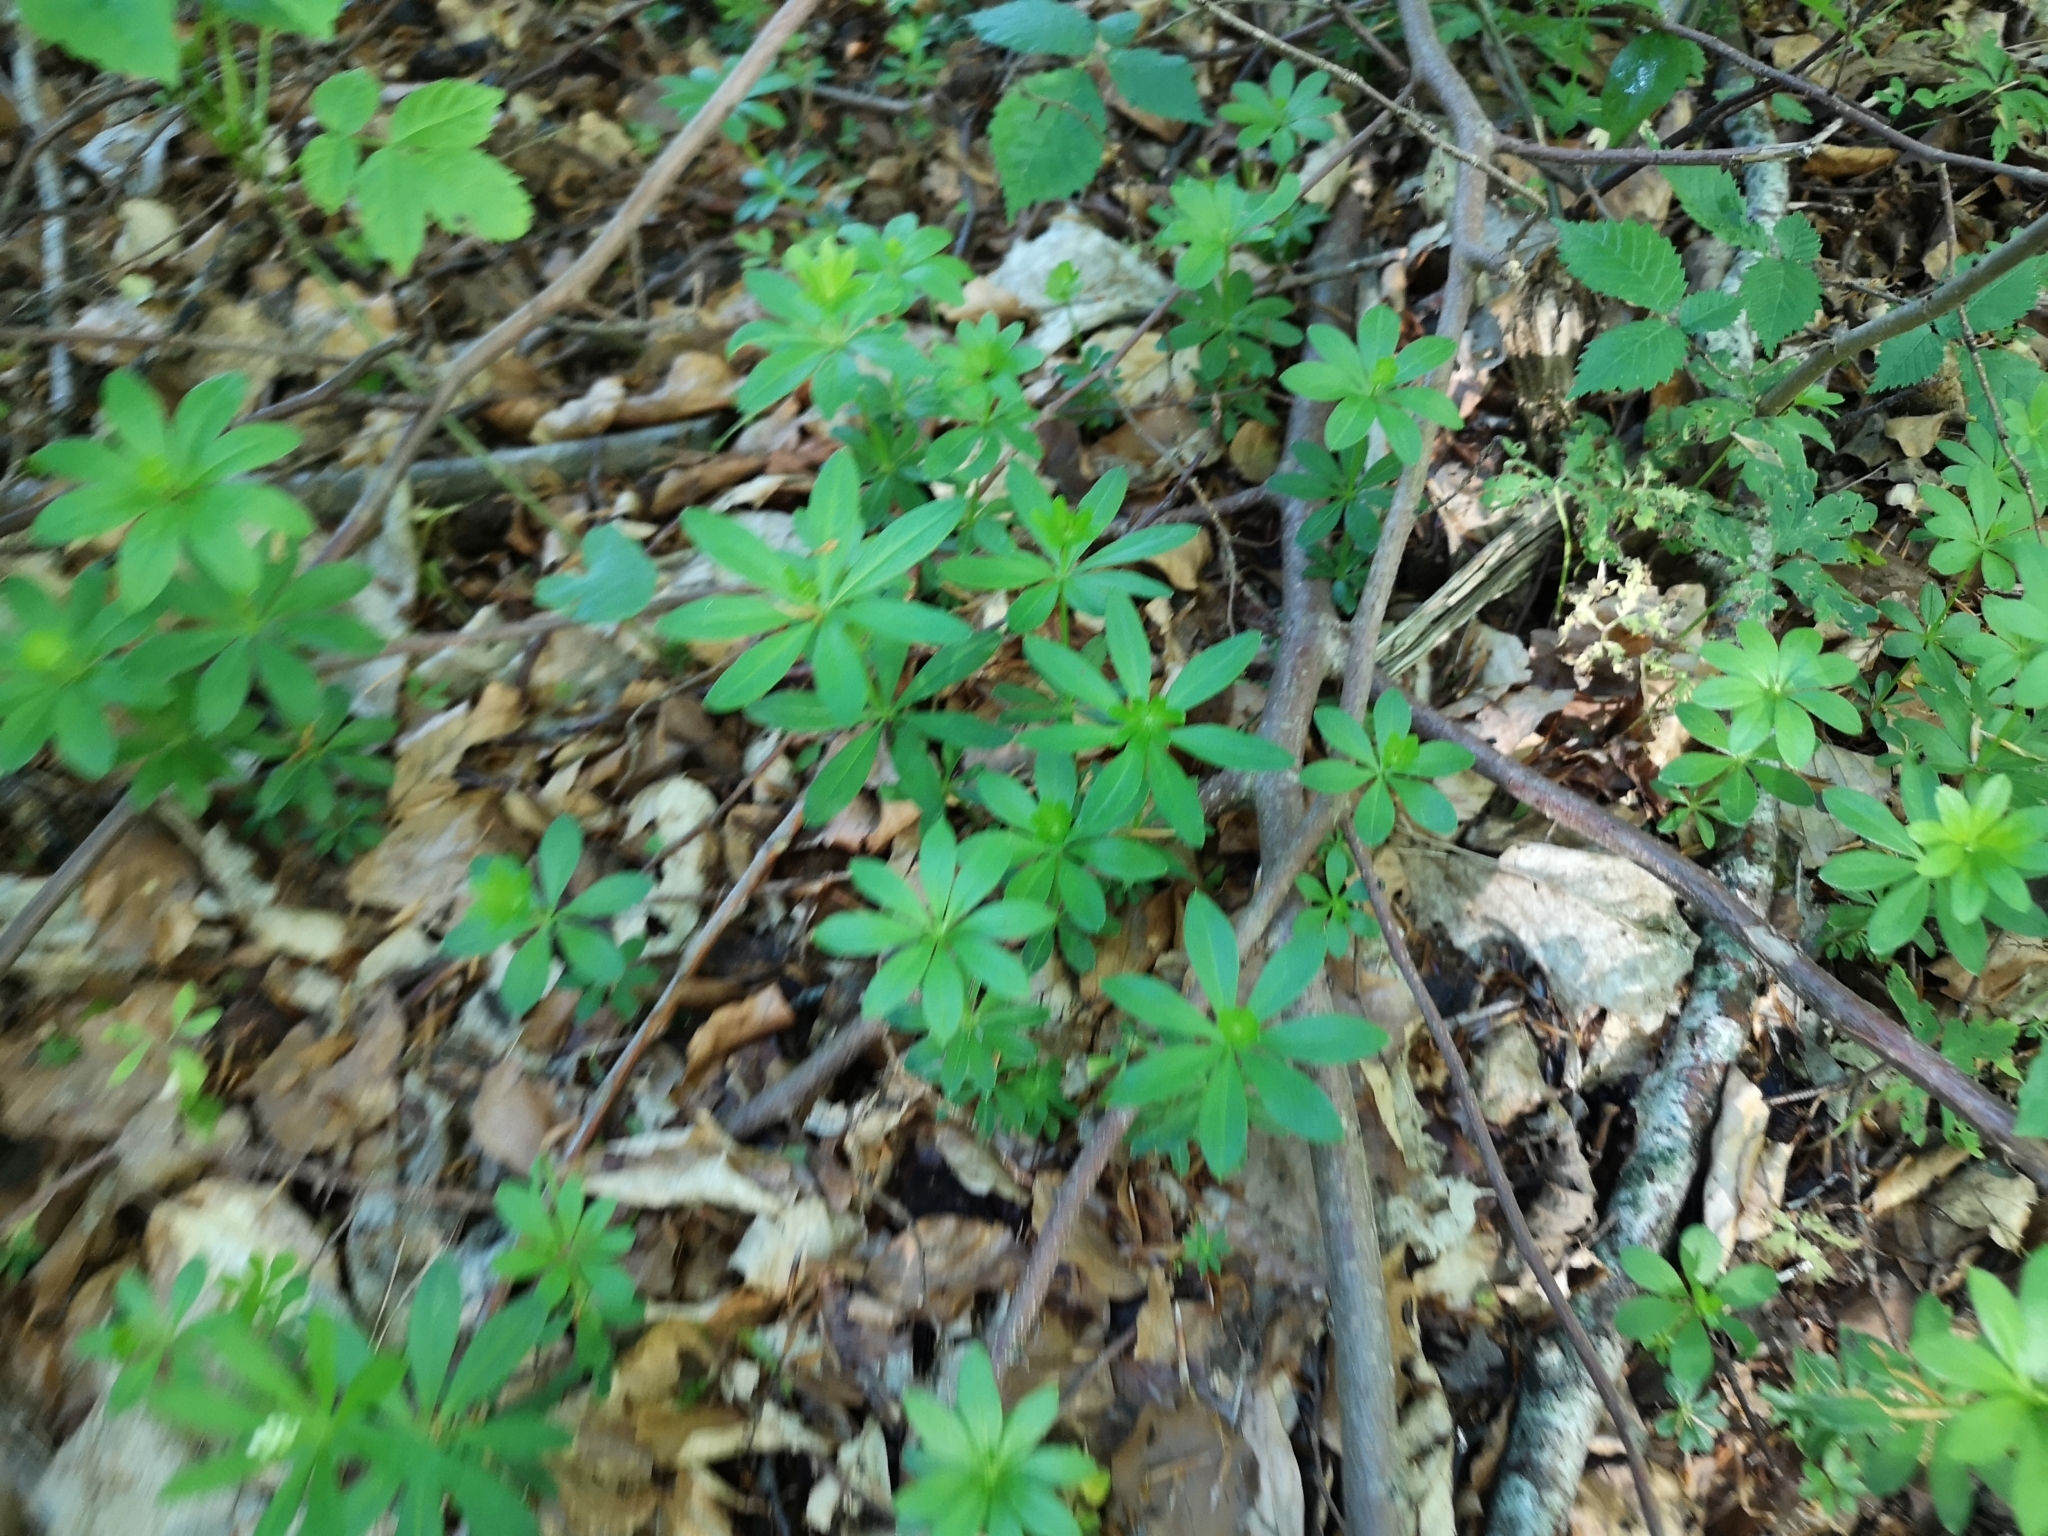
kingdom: Plantae
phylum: Tracheophyta
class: Magnoliopsida
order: Gentianales
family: Rubiaceae
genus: Galium
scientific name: Galium odoratum
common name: Sweet woodruff
